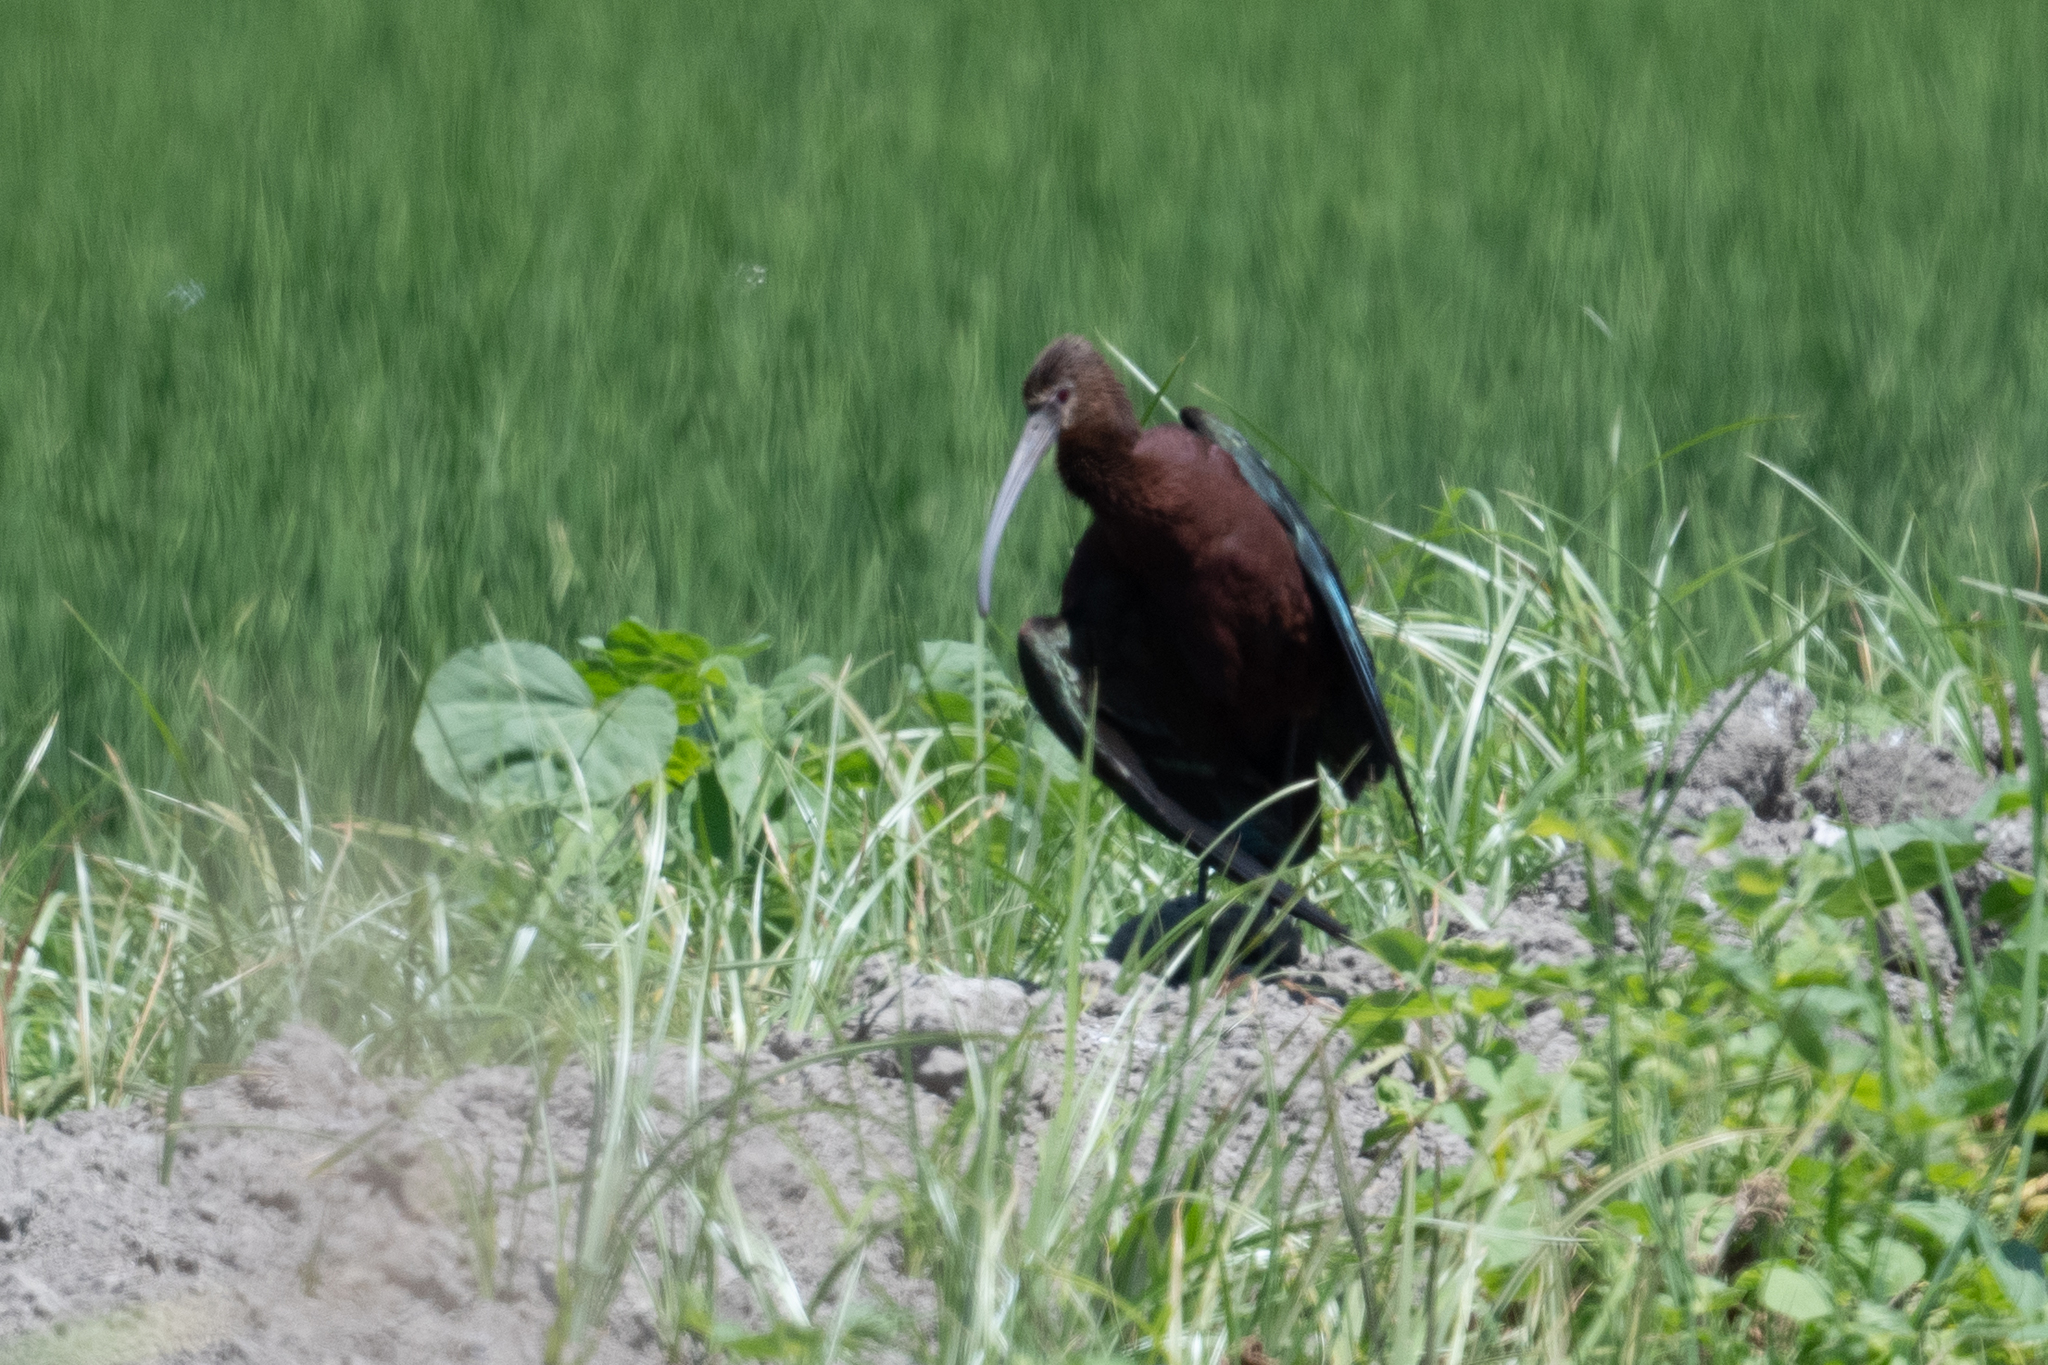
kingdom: Animalia
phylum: Chordata
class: Aves
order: Pelecaniformes
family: Threskiornithidae
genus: Plegadis
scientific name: Plegadis chihi
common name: White-faced ibis
